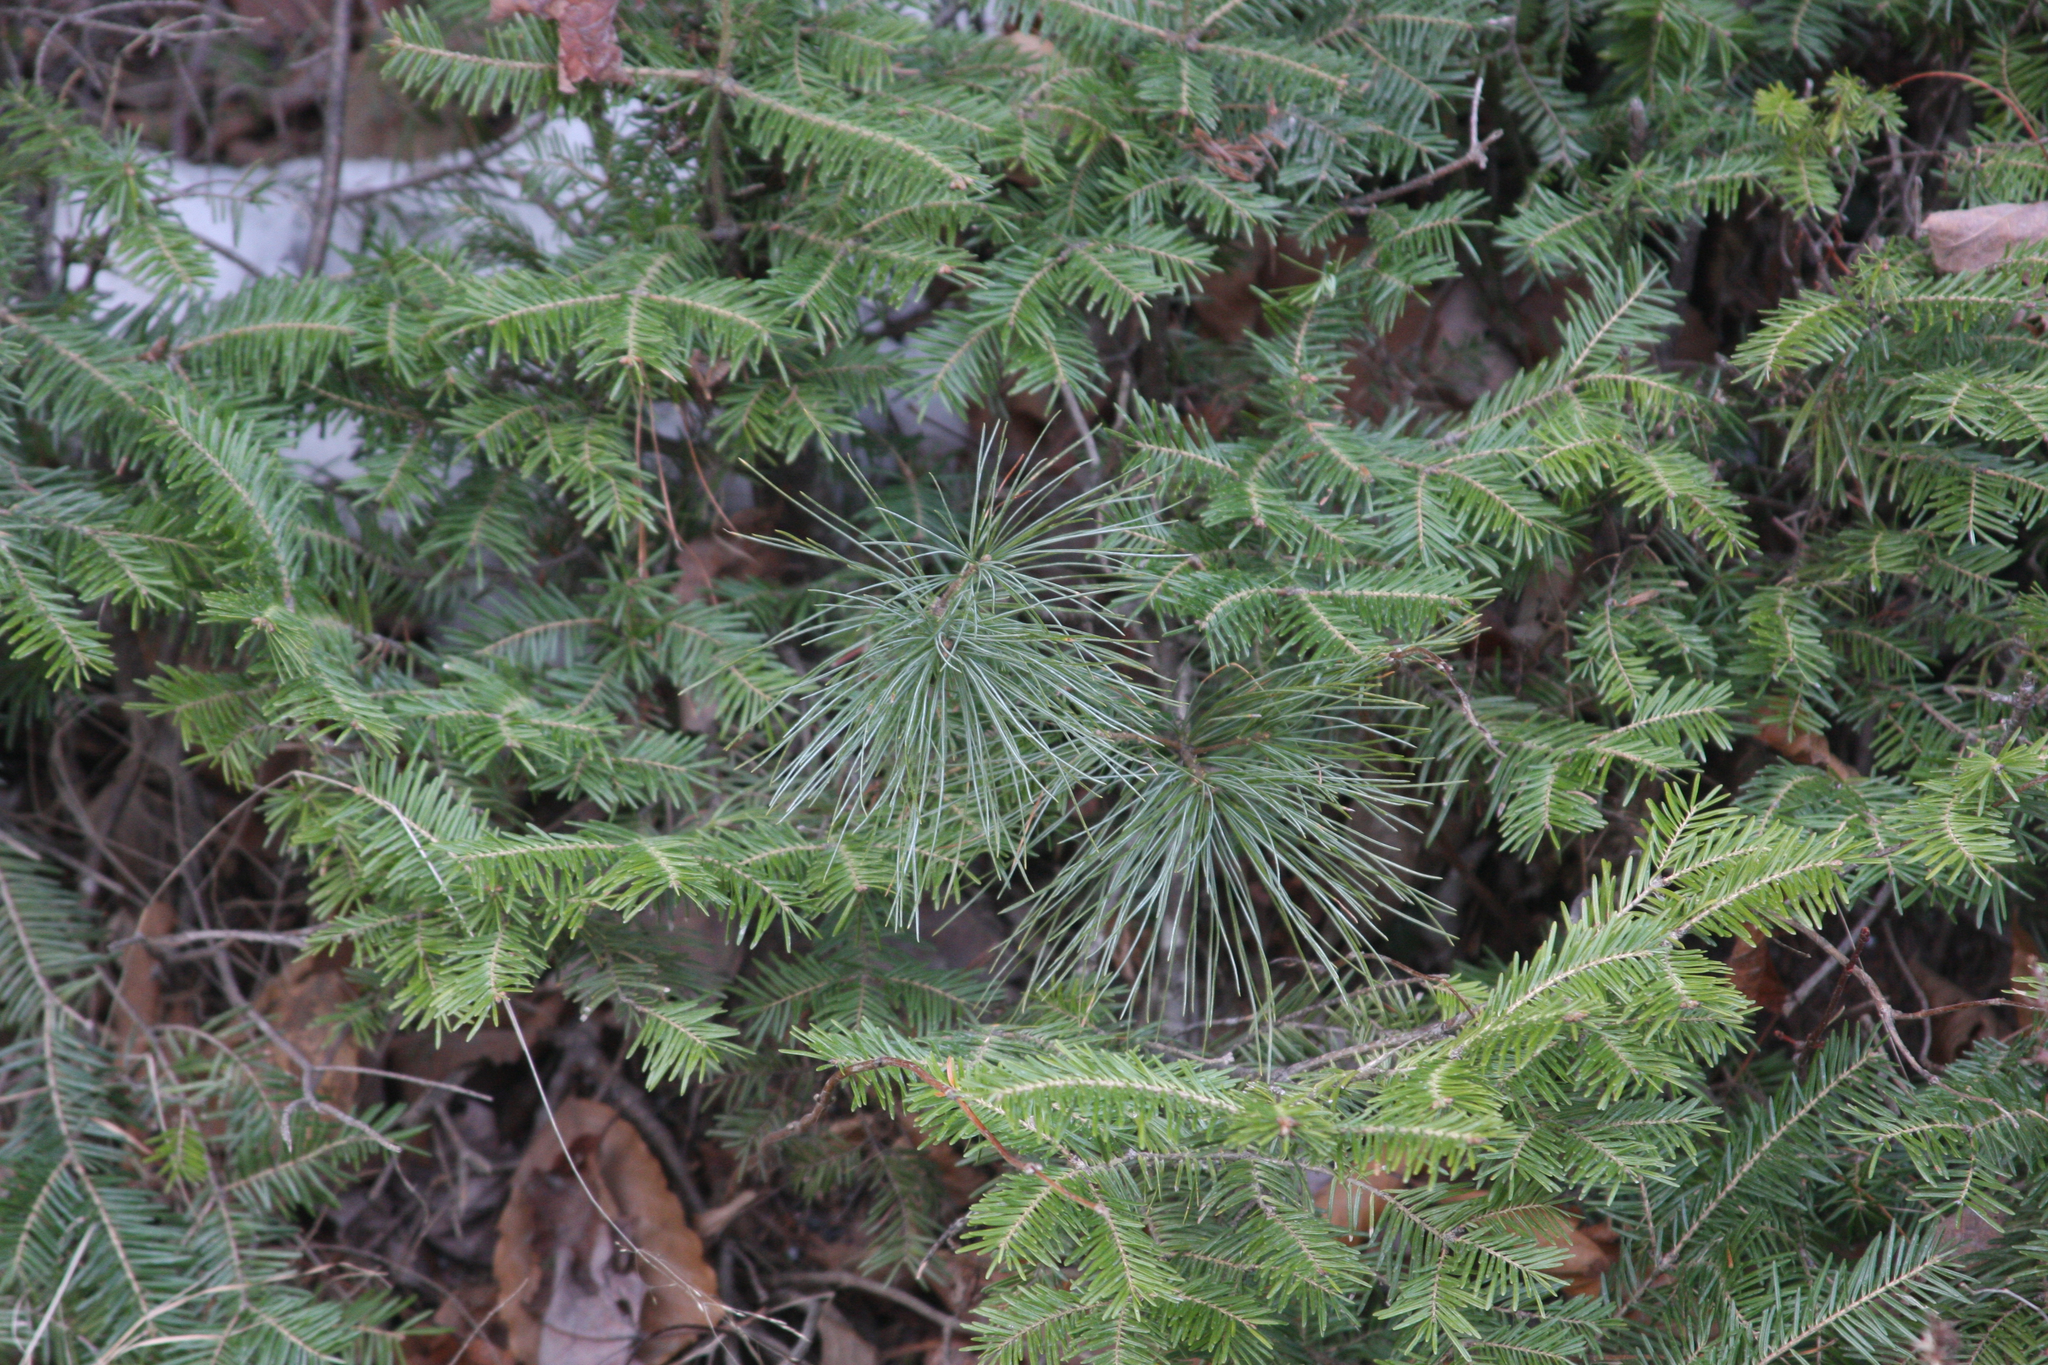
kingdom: Plantae
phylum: Tracheophyta
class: Pinopsida
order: Pinales
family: Pinaceae
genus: Pinus
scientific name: Pinus strobus
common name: Weymouth pine
